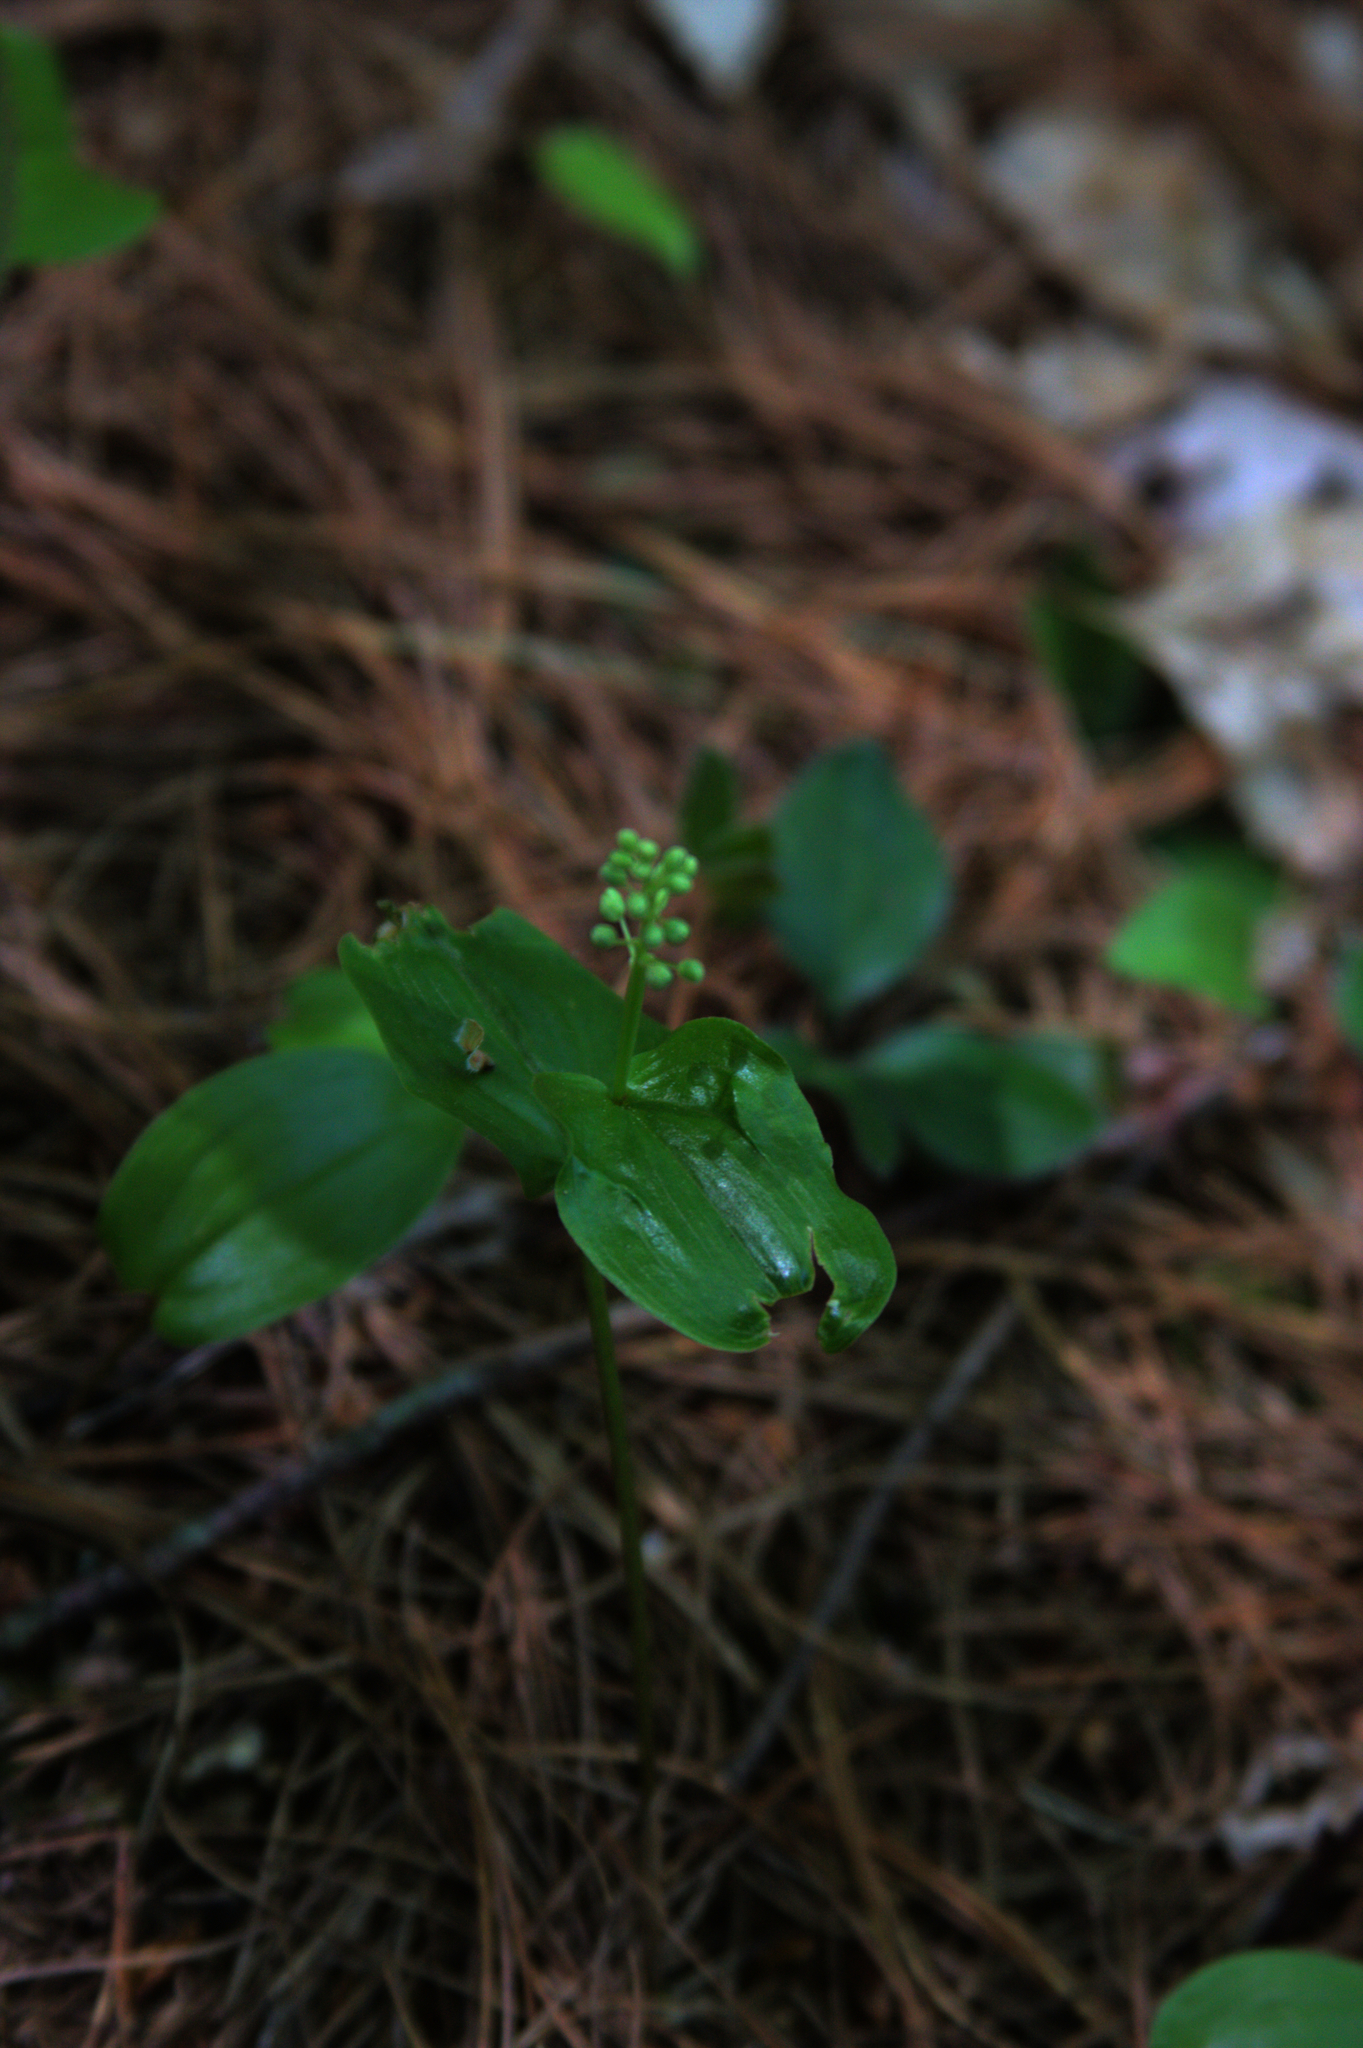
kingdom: Plantae
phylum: Tracheophyta
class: Liliopsida
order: Asparagales
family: Asparagaceae
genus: Maianthemum
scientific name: Maianthemum canadense
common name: False lily-of-the-valley
